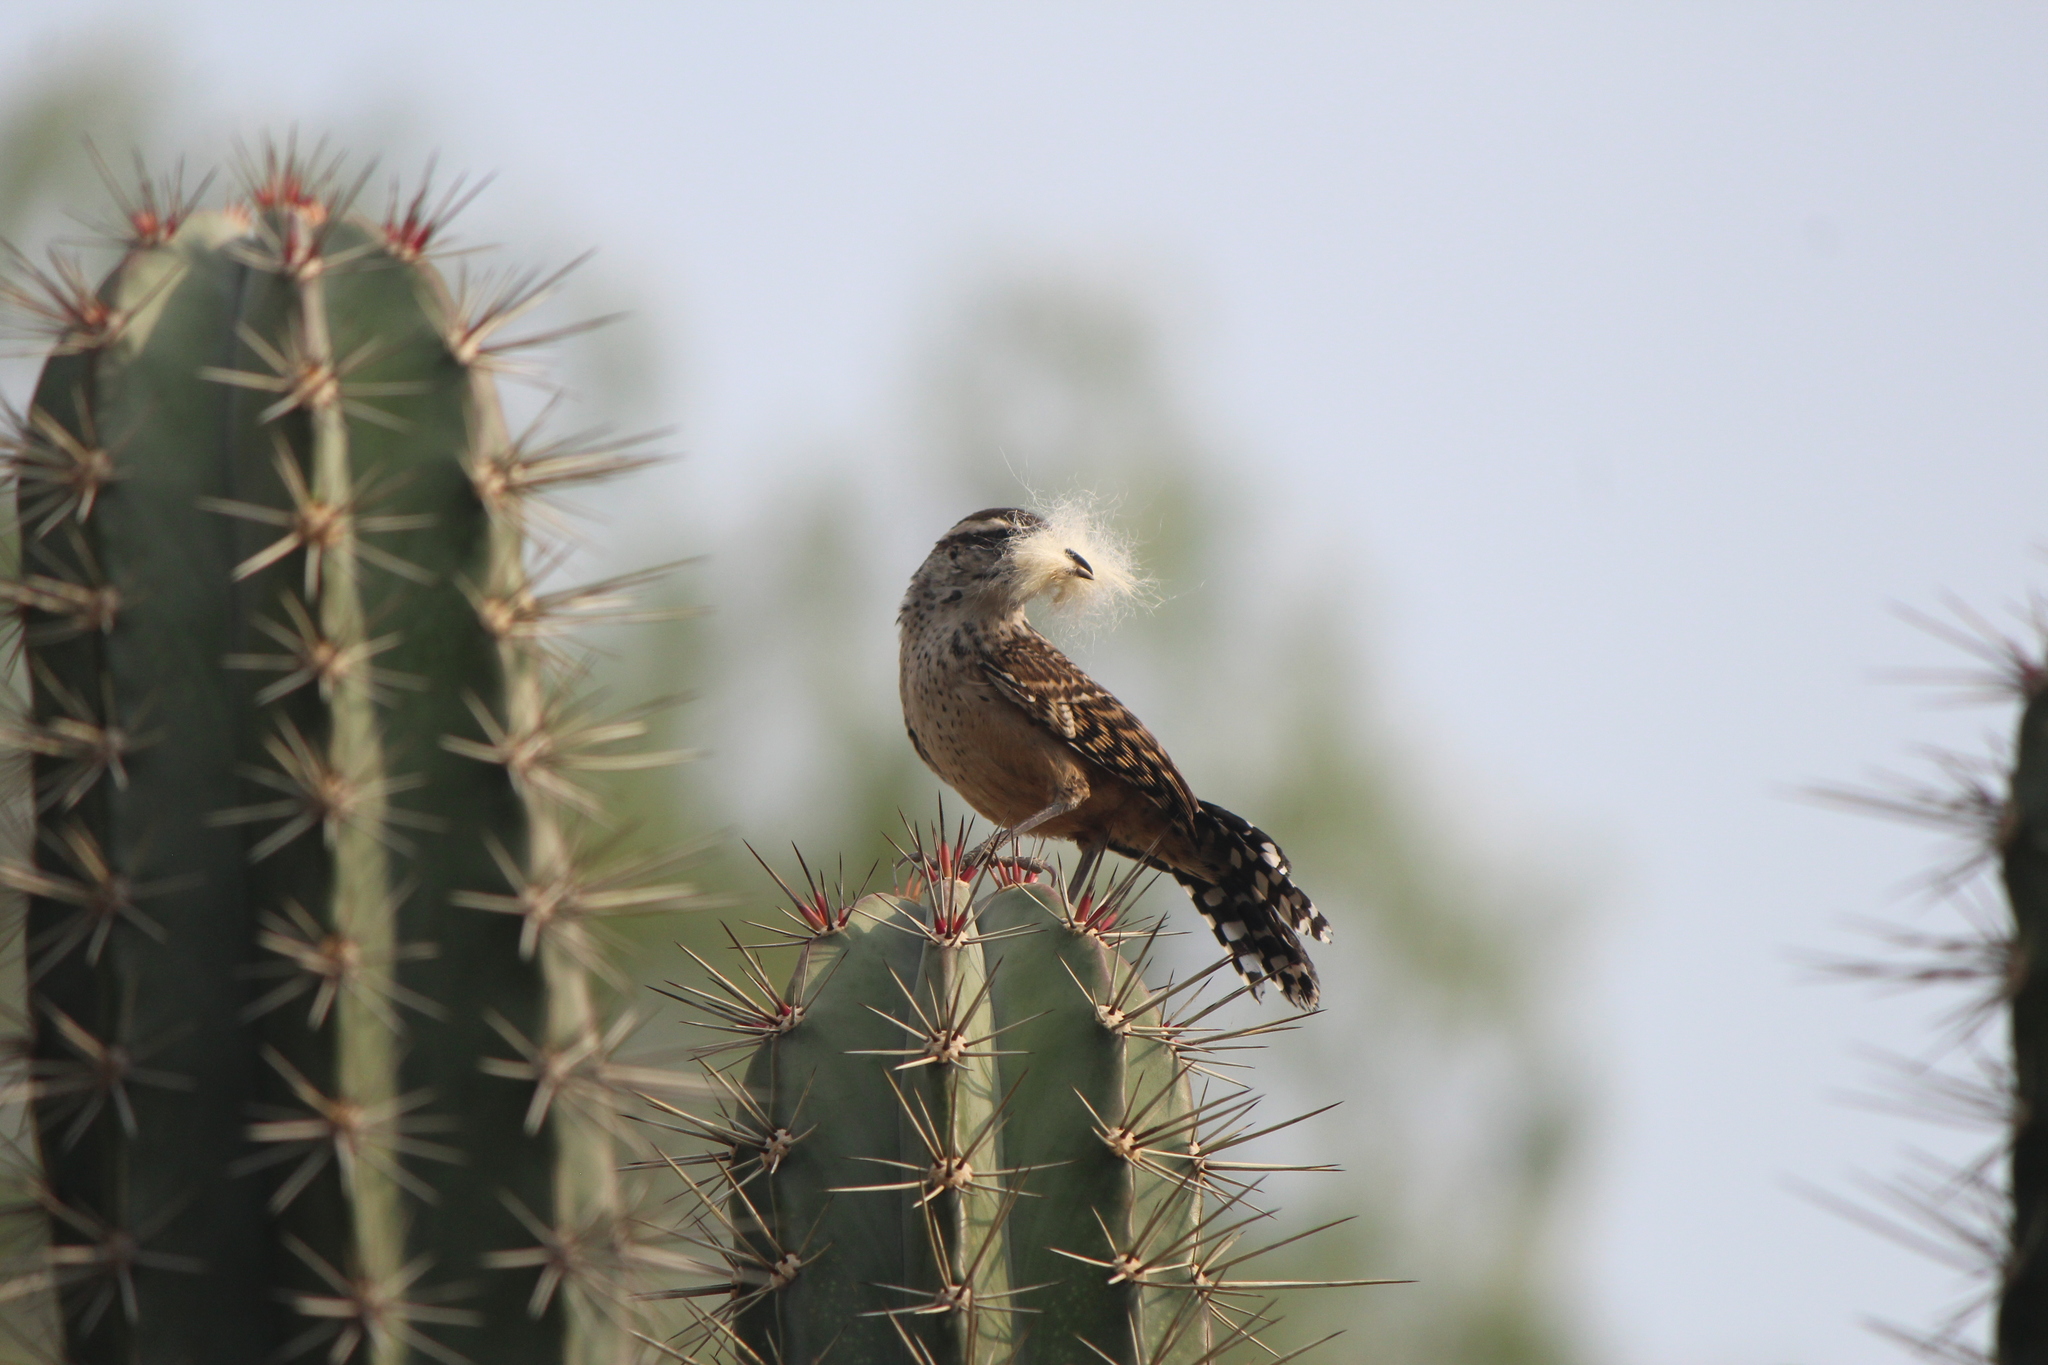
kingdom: Animalia
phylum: Chordata
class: Aves
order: Passeriformes
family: Troglodytidae
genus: Campylorhynchus
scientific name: Campylorhynchus brunneicapillus
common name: Cactus wren
